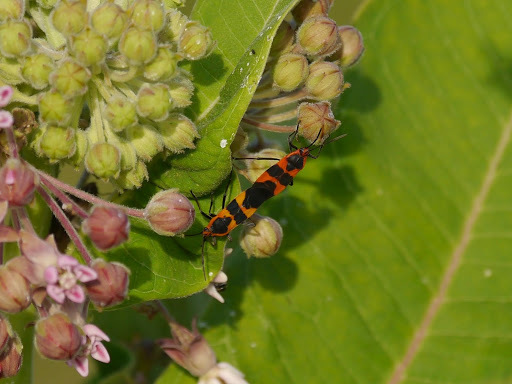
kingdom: Animalia
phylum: Arthropoda
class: Insecta
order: Hemiptera
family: Lygaeidae
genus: Oncopeltus
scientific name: Oncopeltus fasciatus
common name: Large milkweed bug
